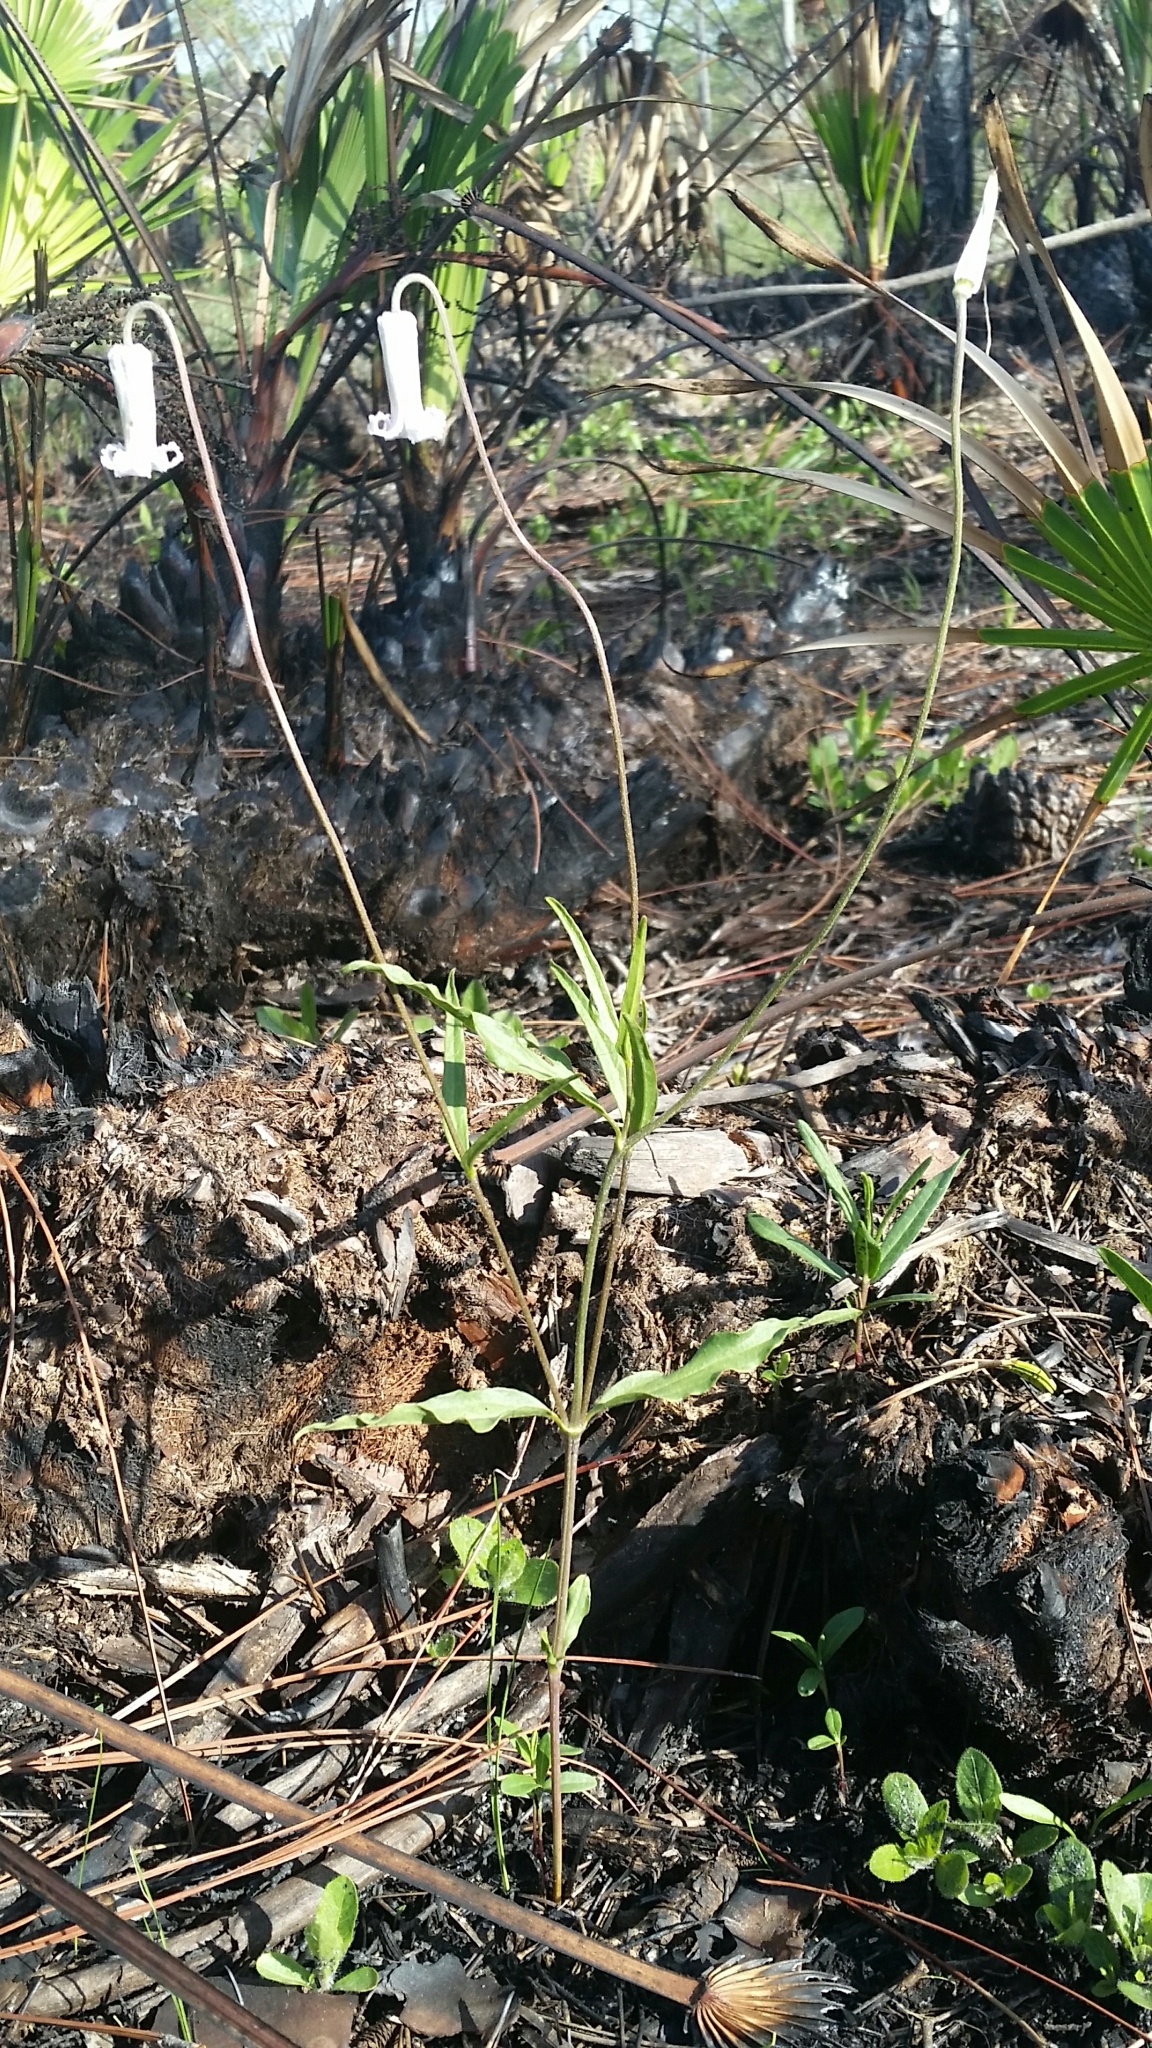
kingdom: Plantae
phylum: Tracheophyta
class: Magnoliopsida
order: Ranunculales
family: Ranunculaceae
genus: Clematis
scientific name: Clematis baldwinii
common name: Pine-hyacinth
